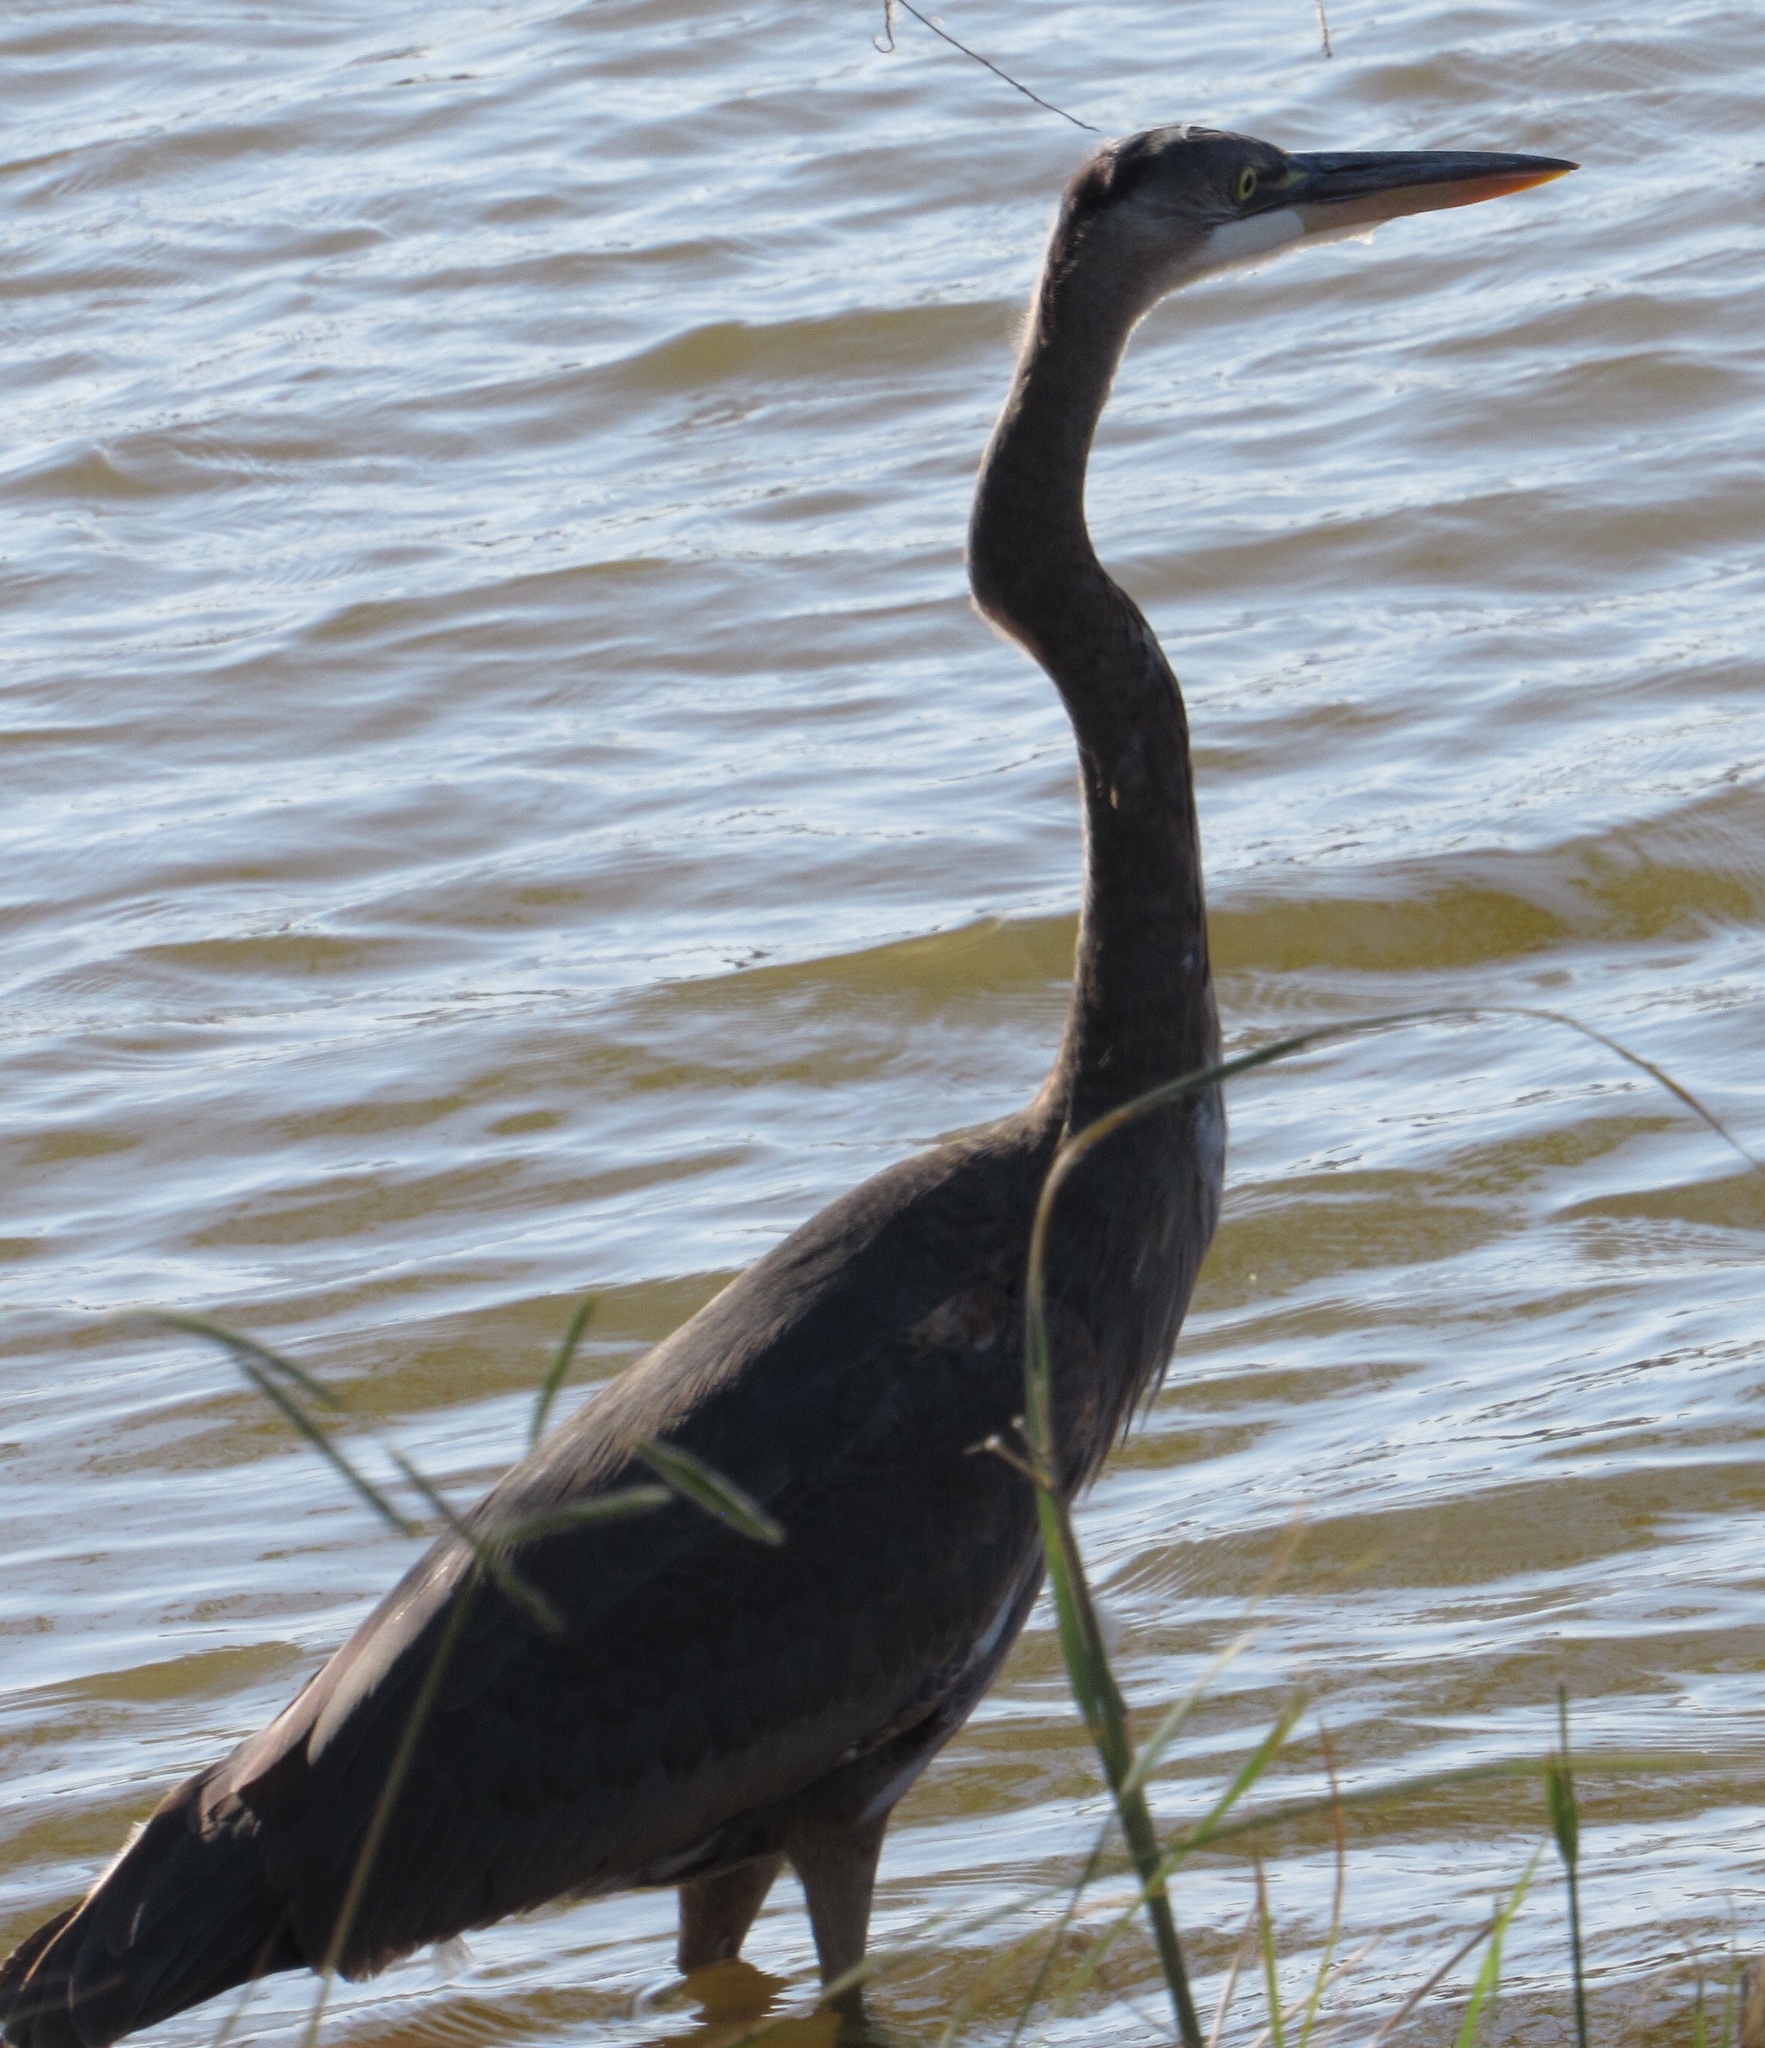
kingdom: Animalia
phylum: Chordata
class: Aves
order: Pelecaniformes
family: Ardeidae
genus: Ardea
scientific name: Ardea herodias
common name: Great blue heron
